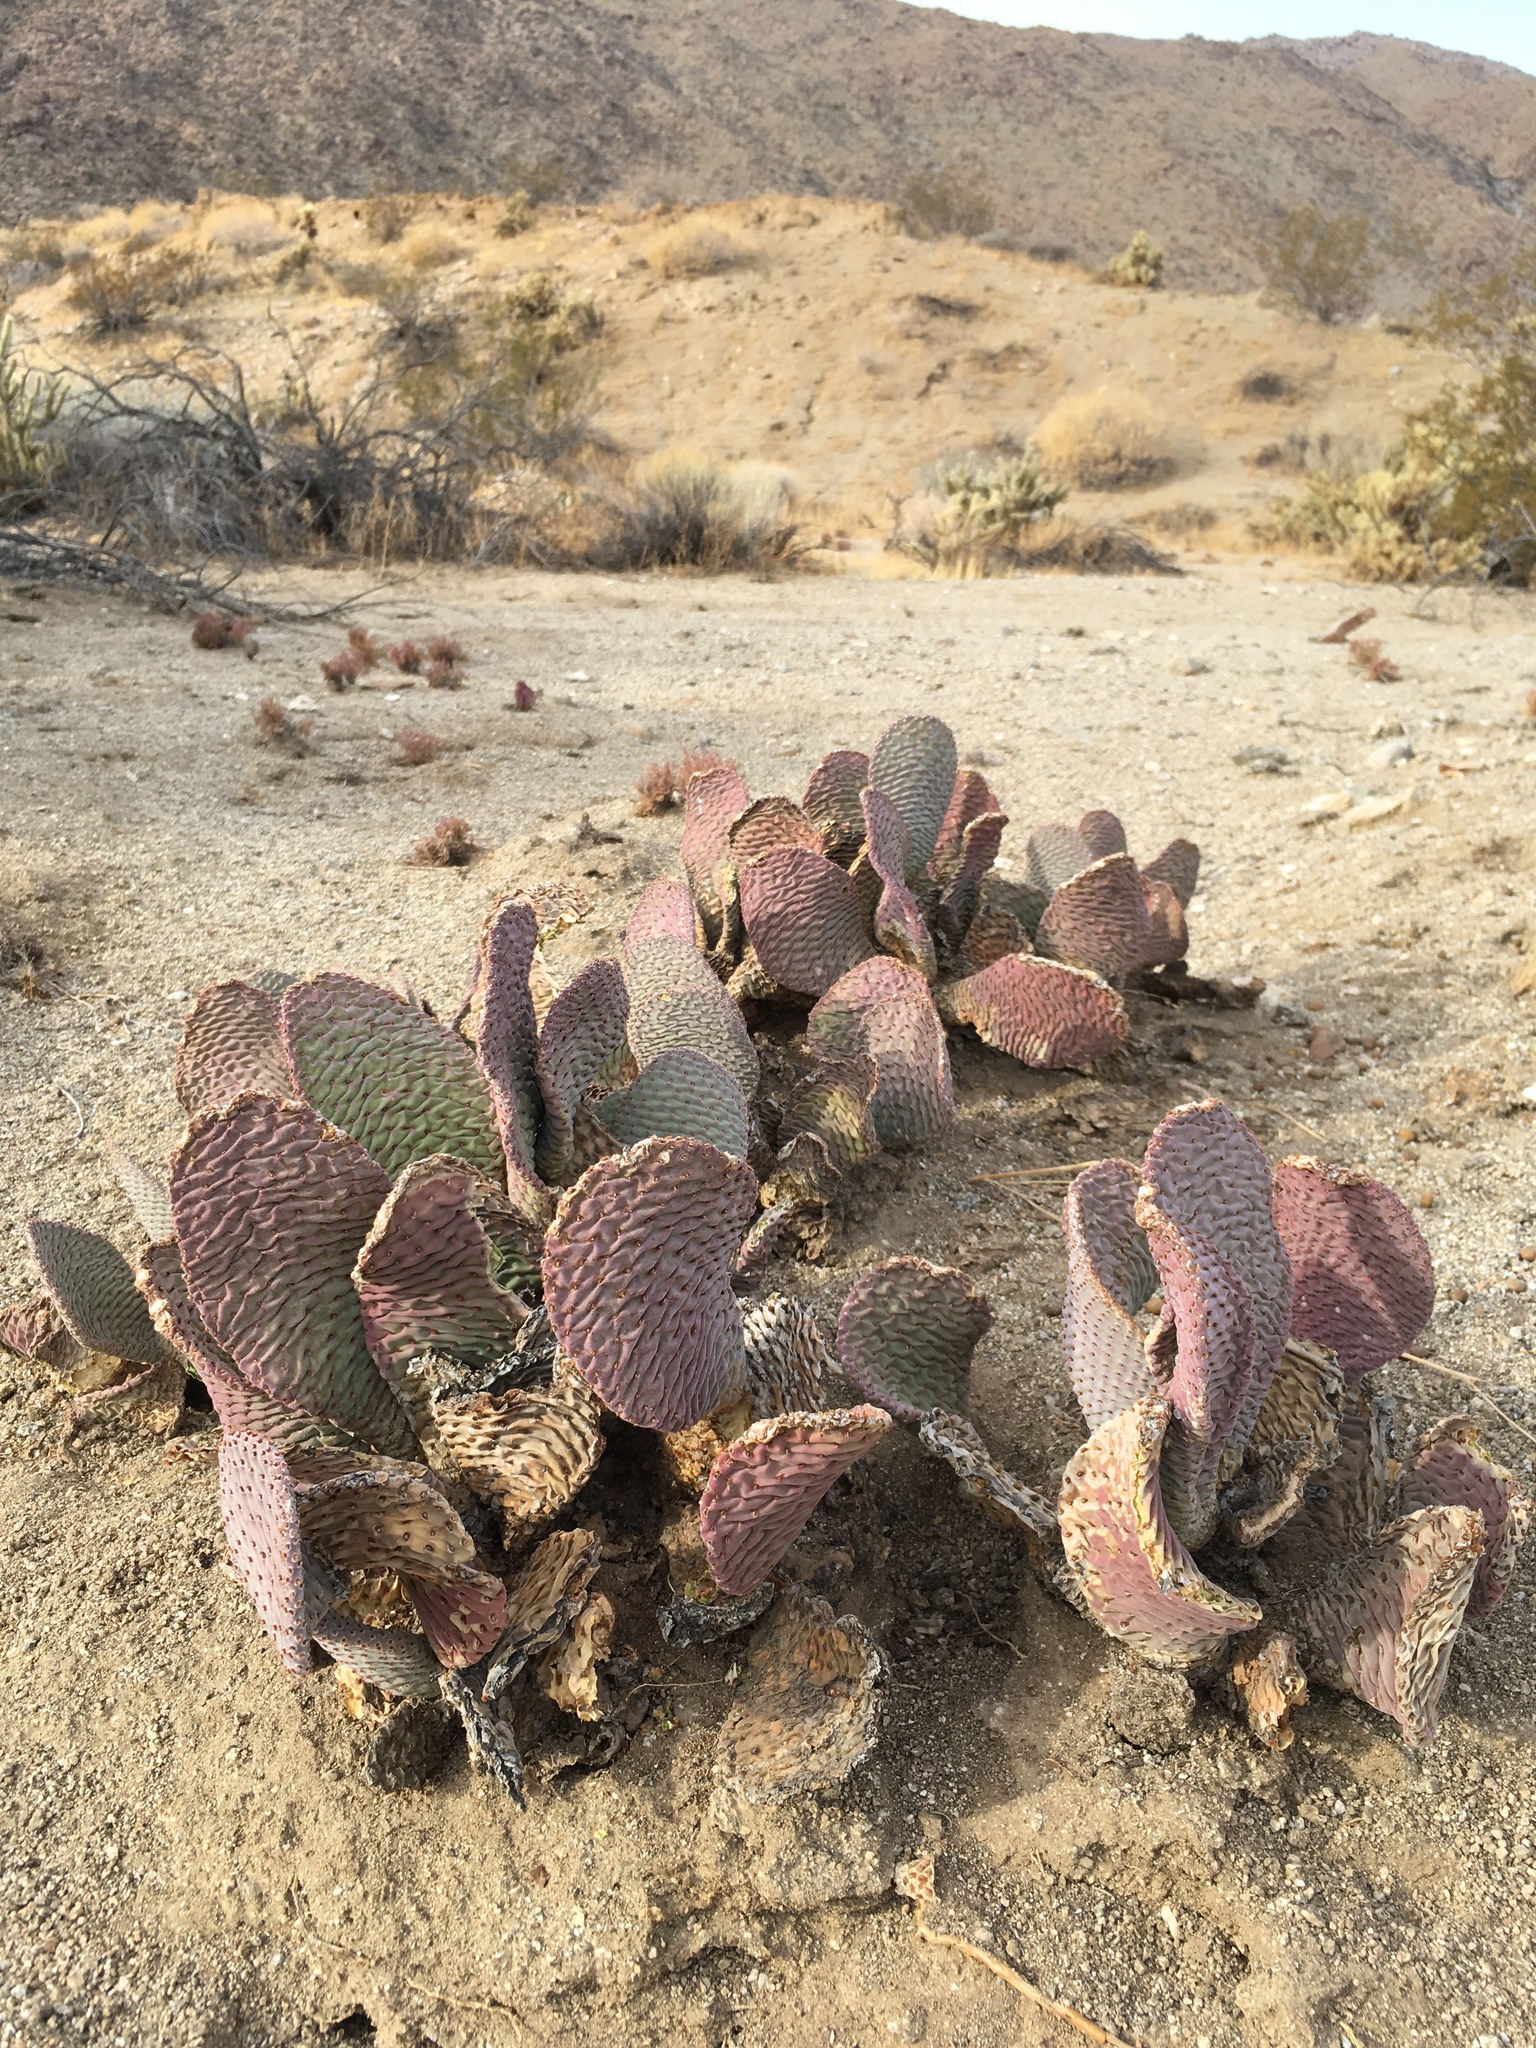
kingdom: Plantae
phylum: Tracheophyta
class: Magnoliopsida
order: Caryophyllales
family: Cactaceae
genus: Opuntia
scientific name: Opuntia basilaris
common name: Beavertail prickly-pear
